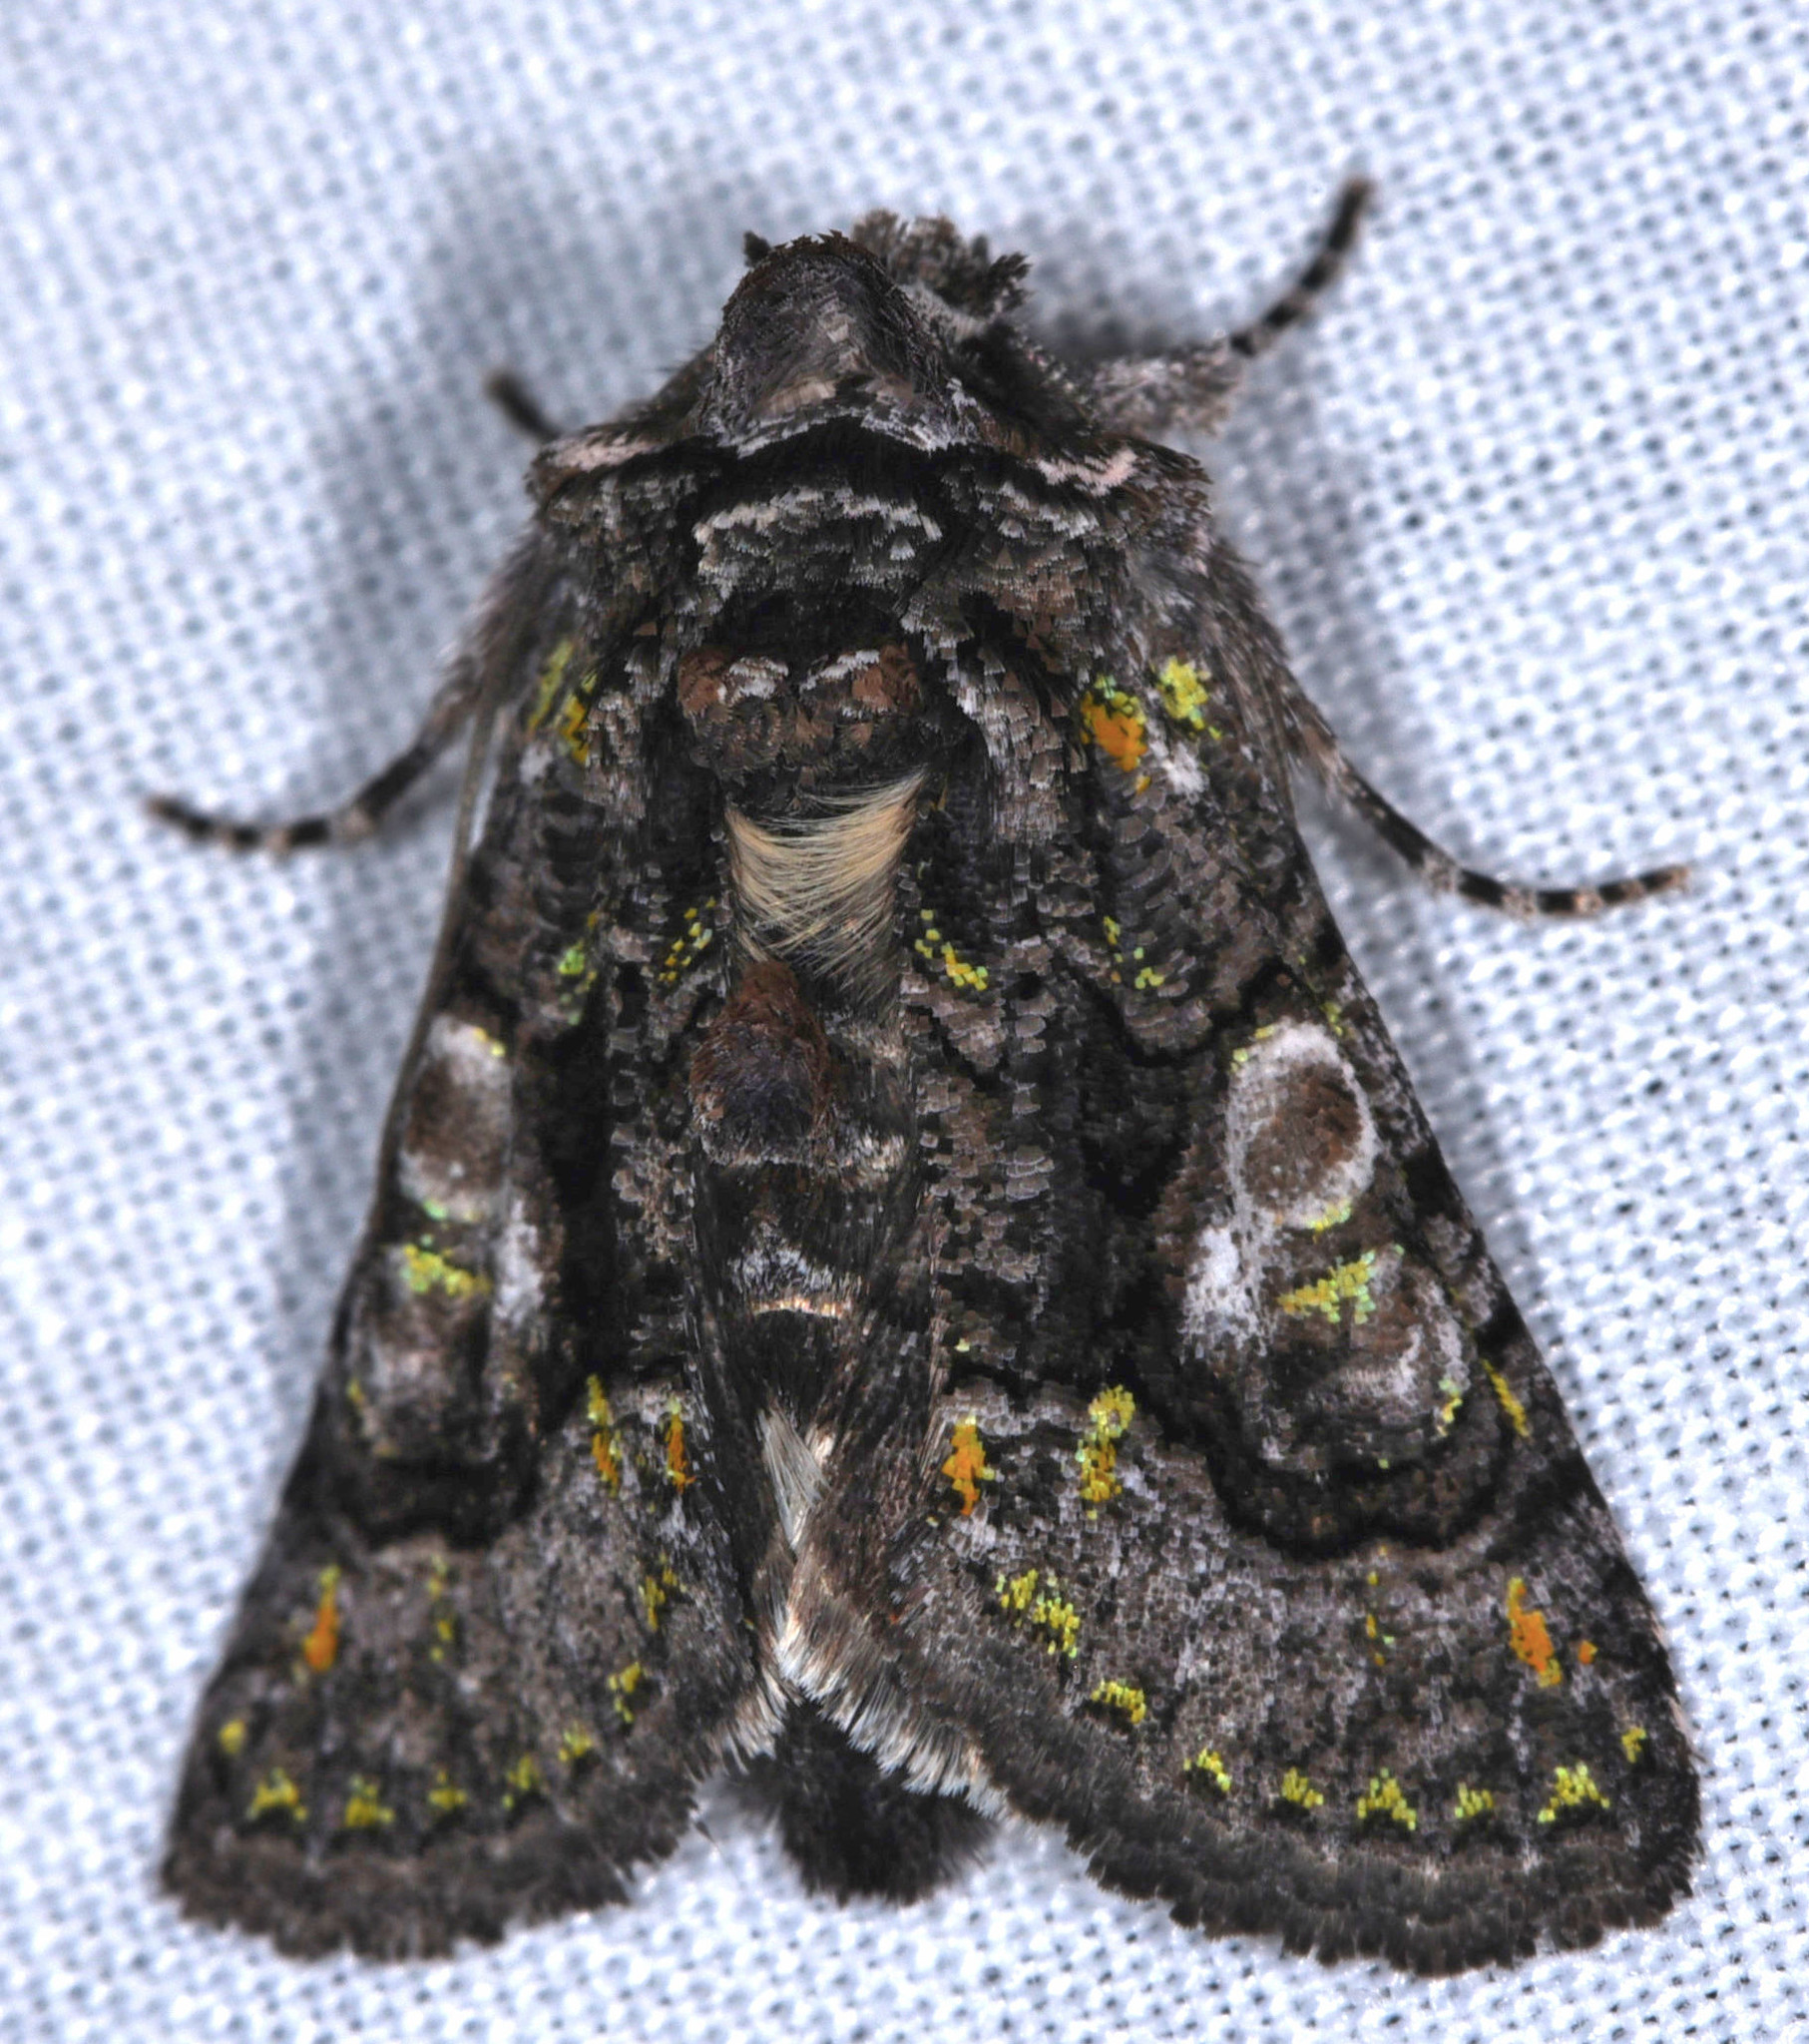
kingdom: Animalia
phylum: Arthropoda
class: Insecta
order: Lepidoptera
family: Noctuidae
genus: Behrensia
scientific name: Behrensia conchiformis
